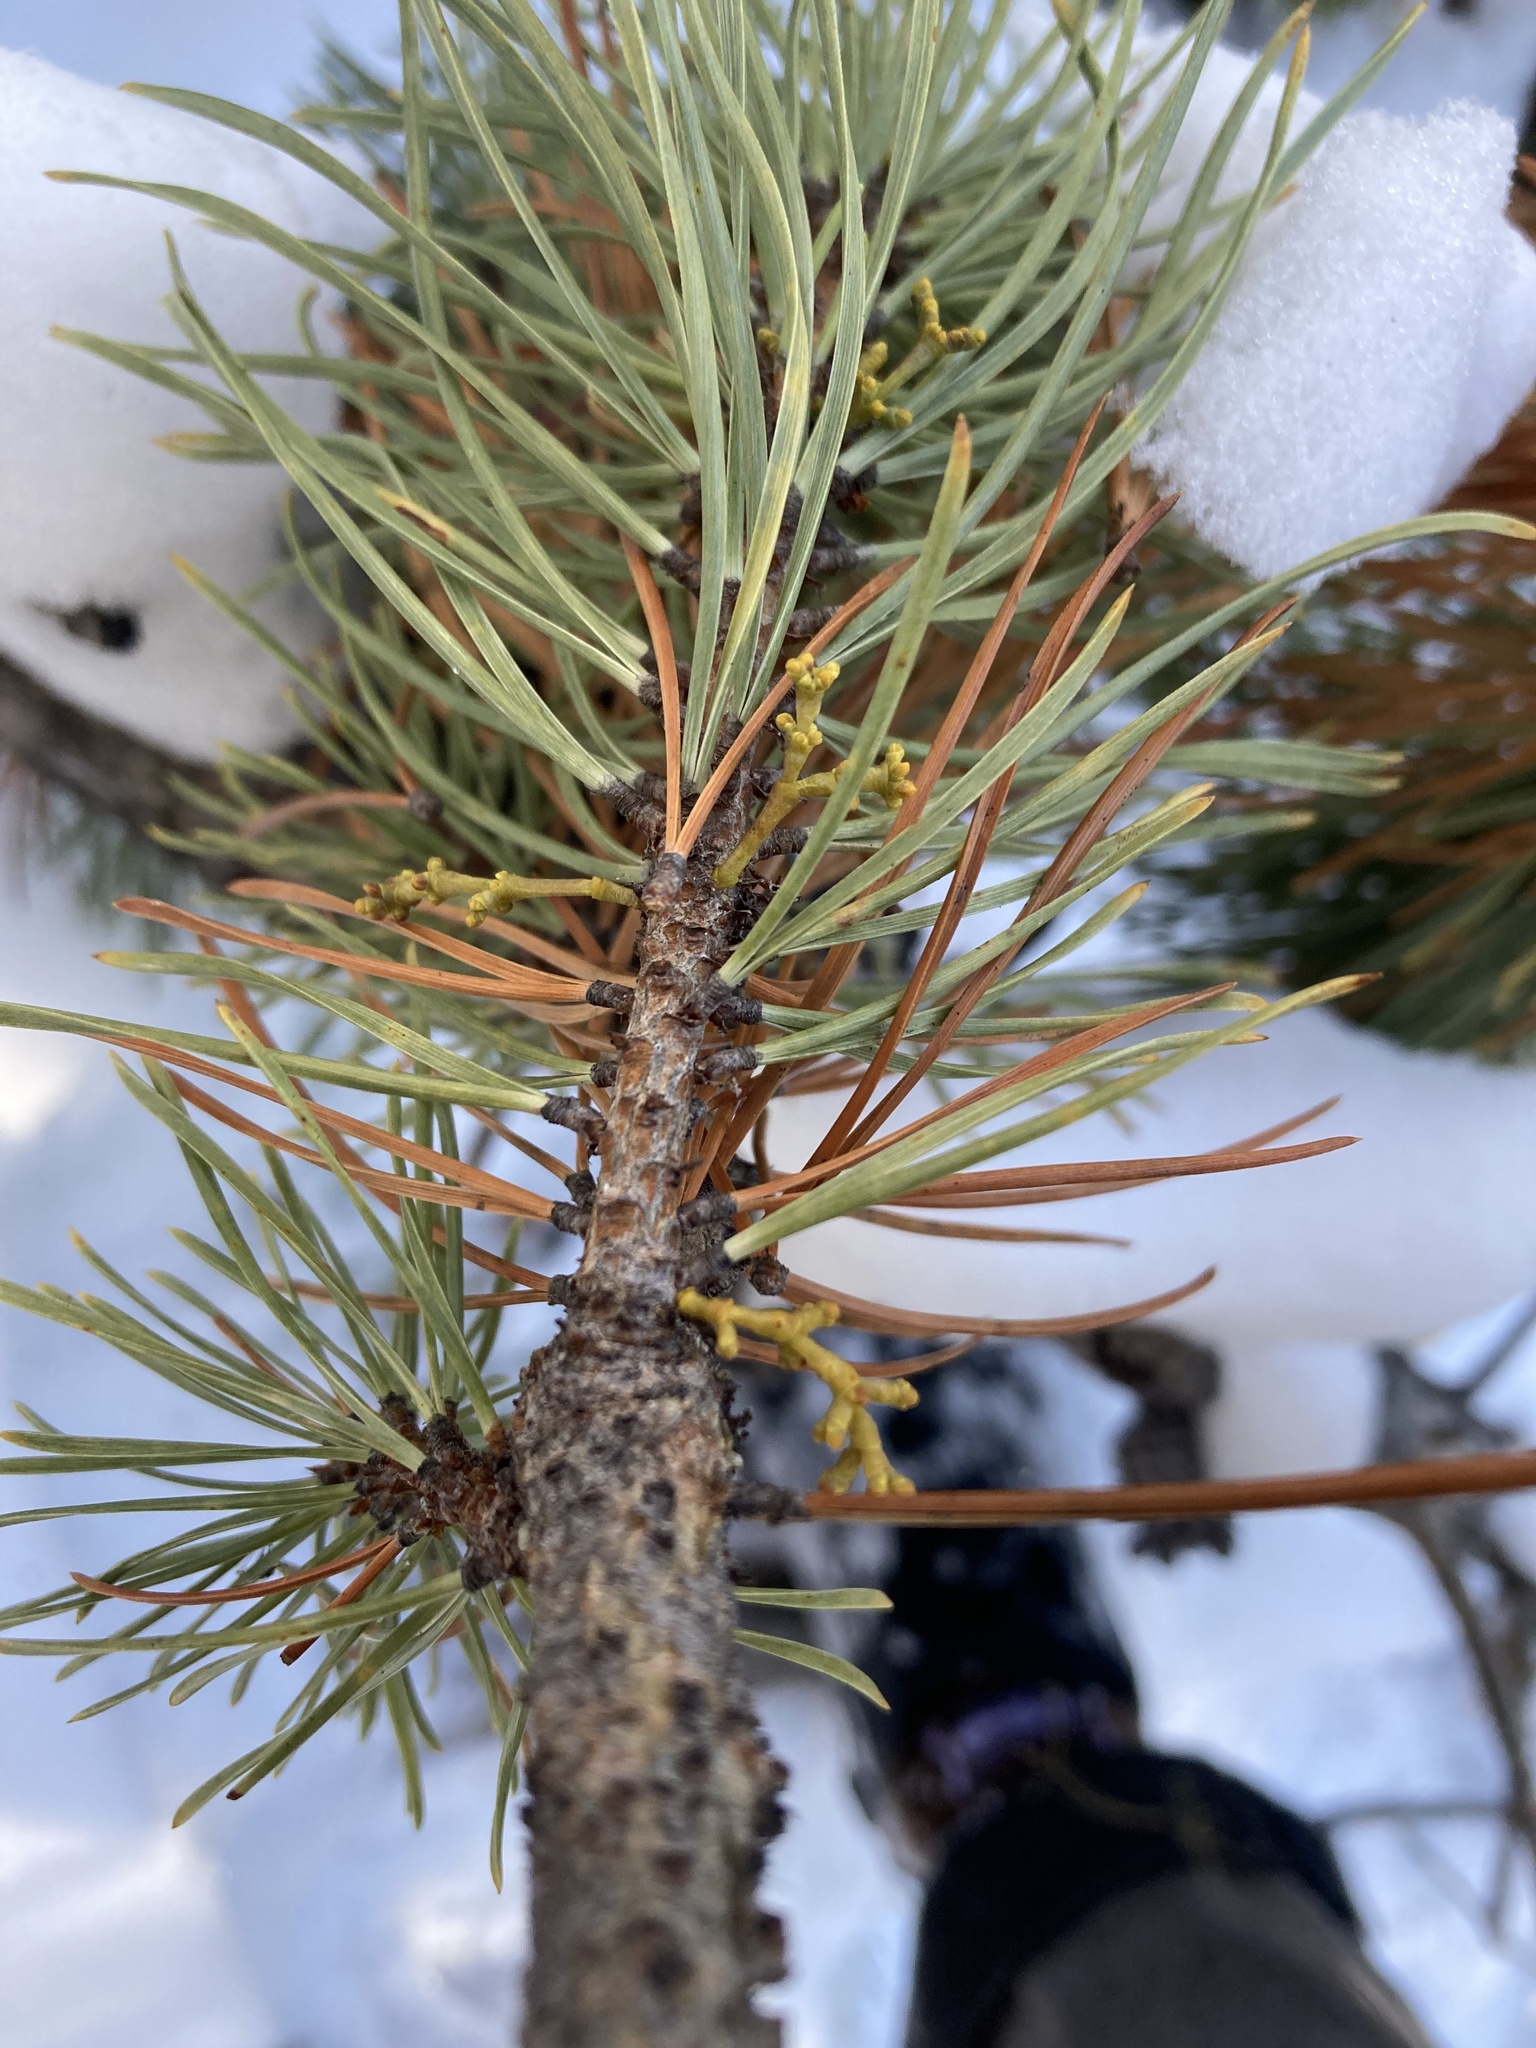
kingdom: Plantae
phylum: Tracheophyta
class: Magnoliopsida
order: Santalales
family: Viscaceae
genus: Arceuthobium
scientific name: Arceuthobium americanum
